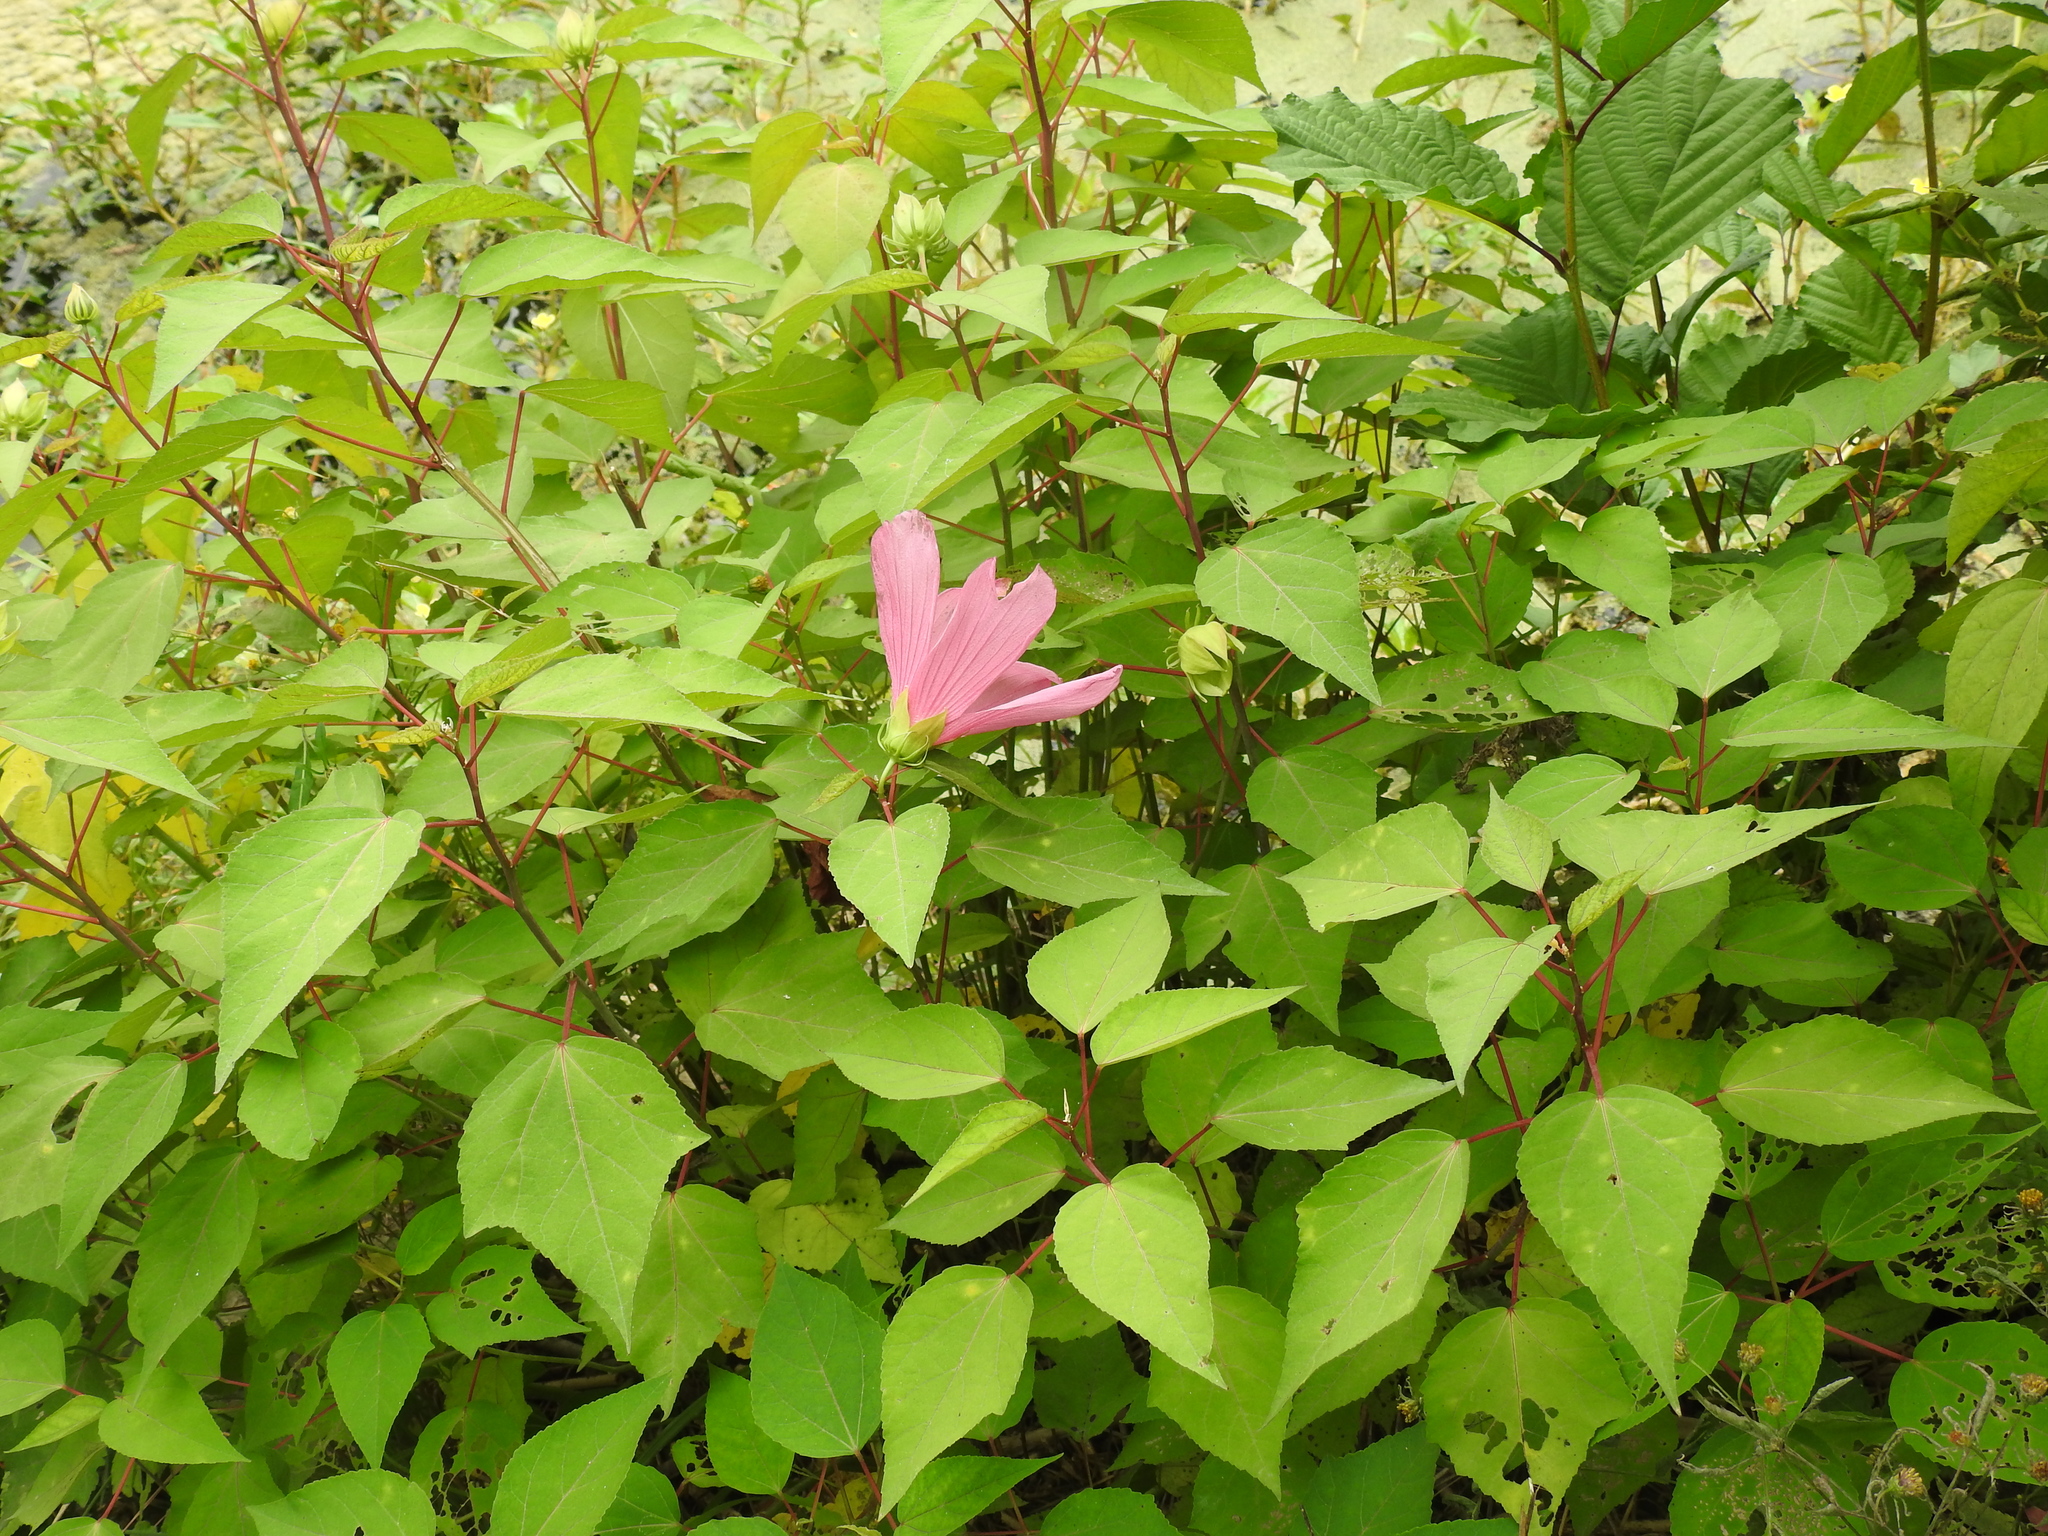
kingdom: Plantae
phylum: Tracheophyta
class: Magnoliopsida
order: Malvales
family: Malvaceae
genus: Hibiscus
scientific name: Hibiscus moscheutos
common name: Common rose-mallow
